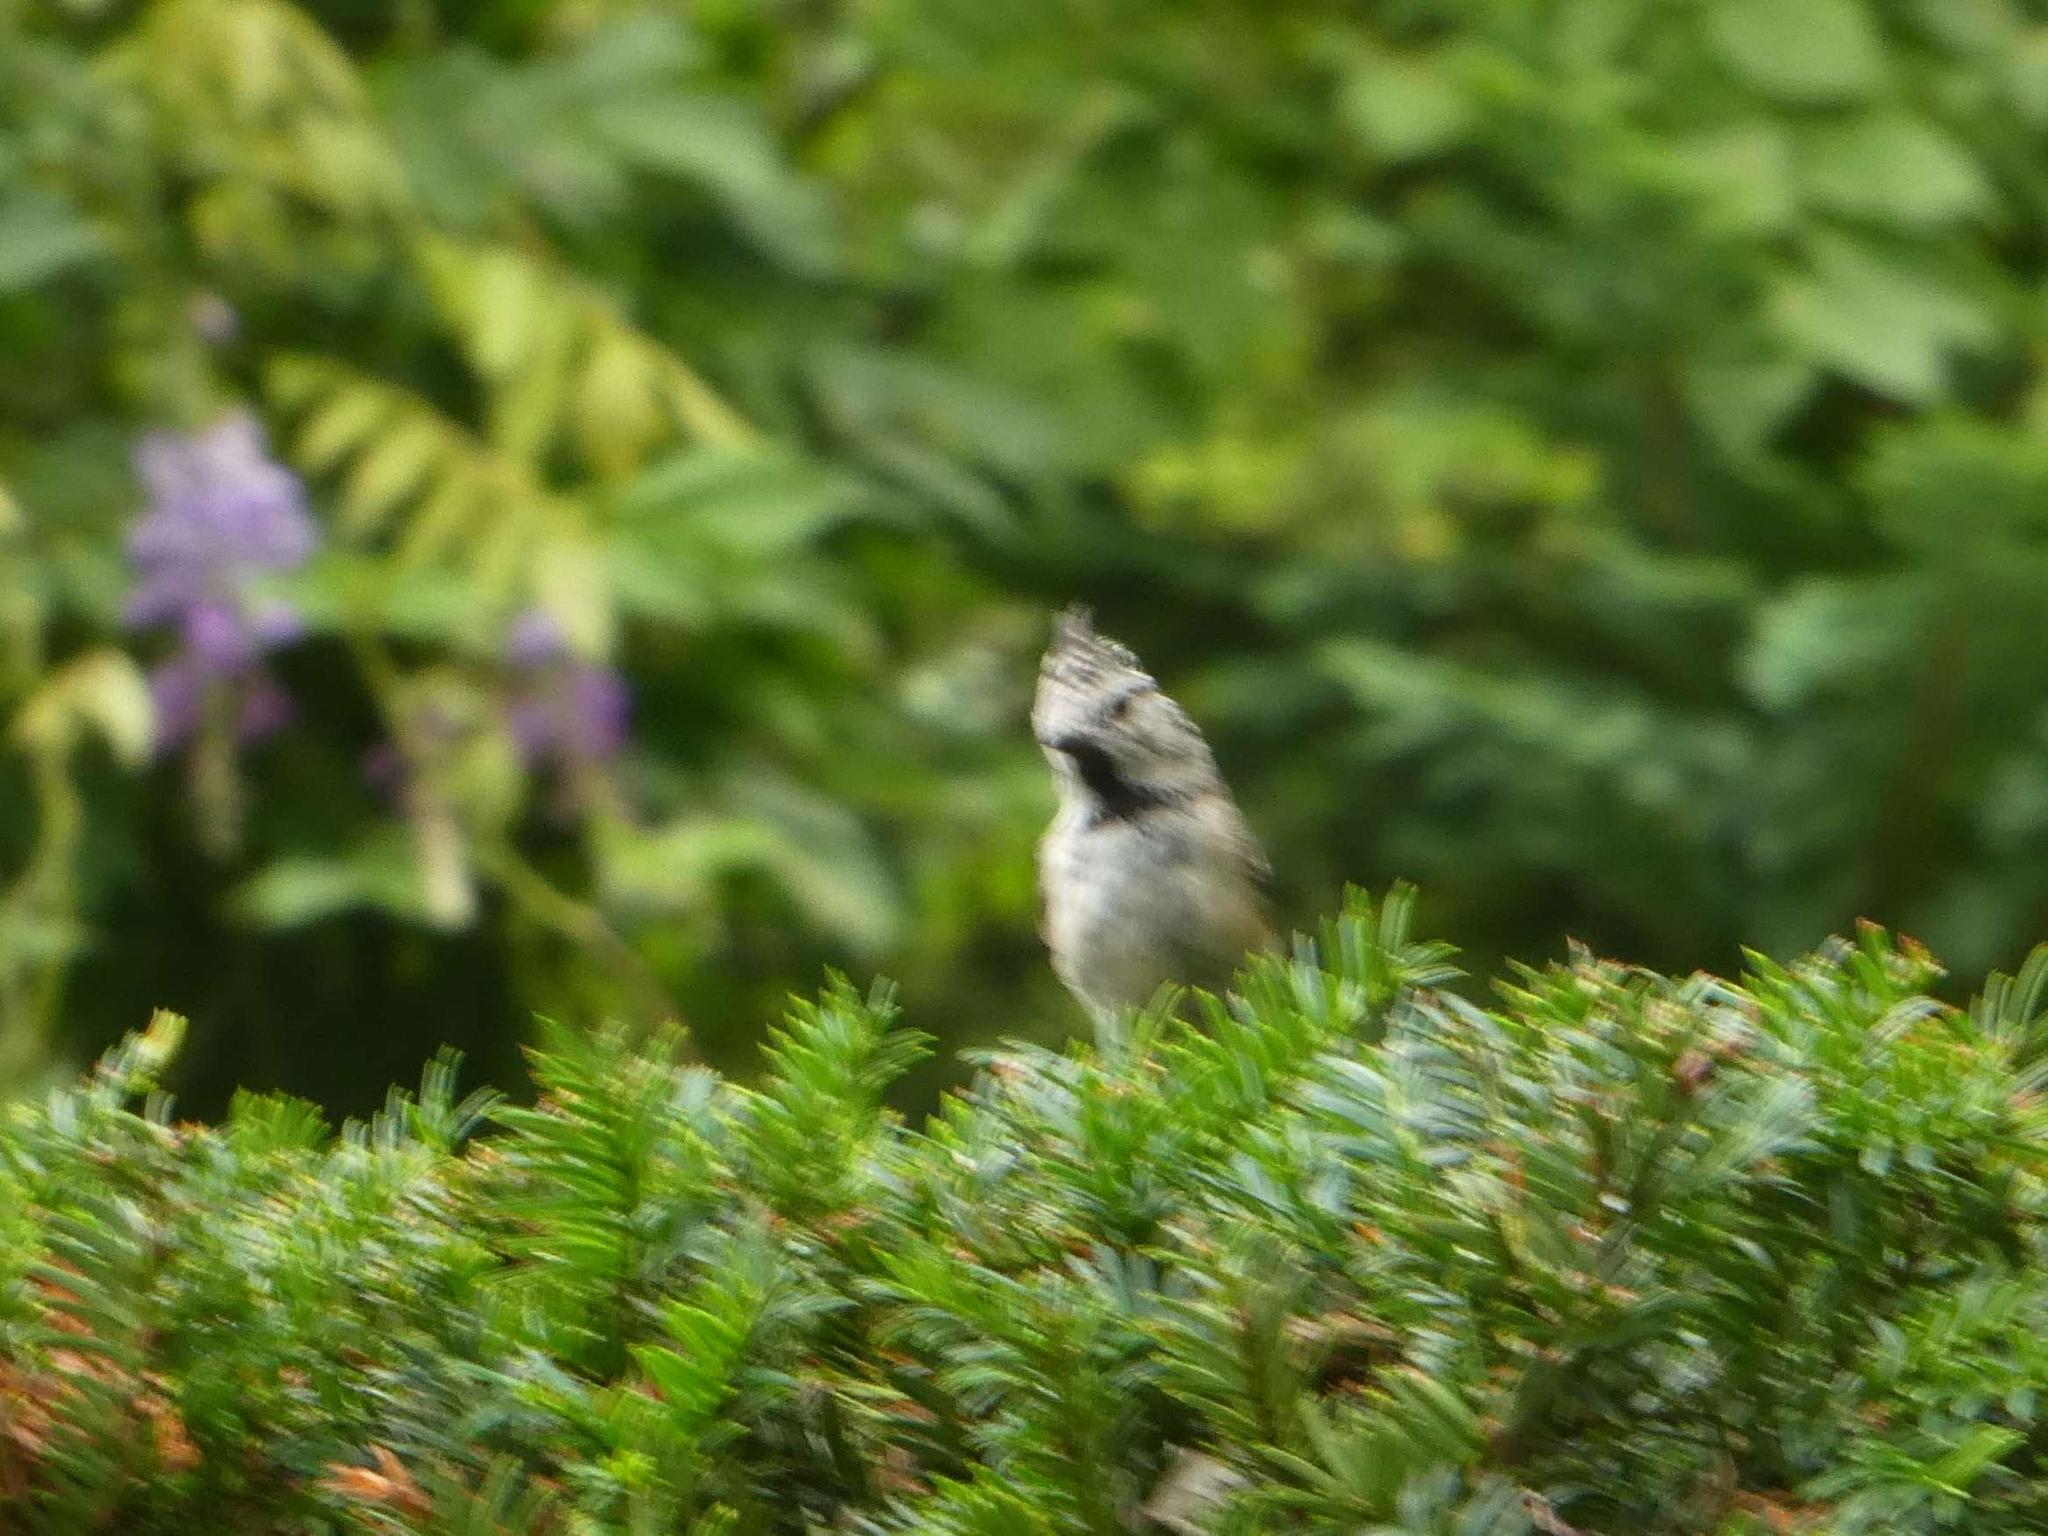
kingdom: Animalia
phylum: Chordata
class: Aves
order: Passeriformes
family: Paridae
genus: Lophophanes
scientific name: Lophophanes cristatus
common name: European crested tit
